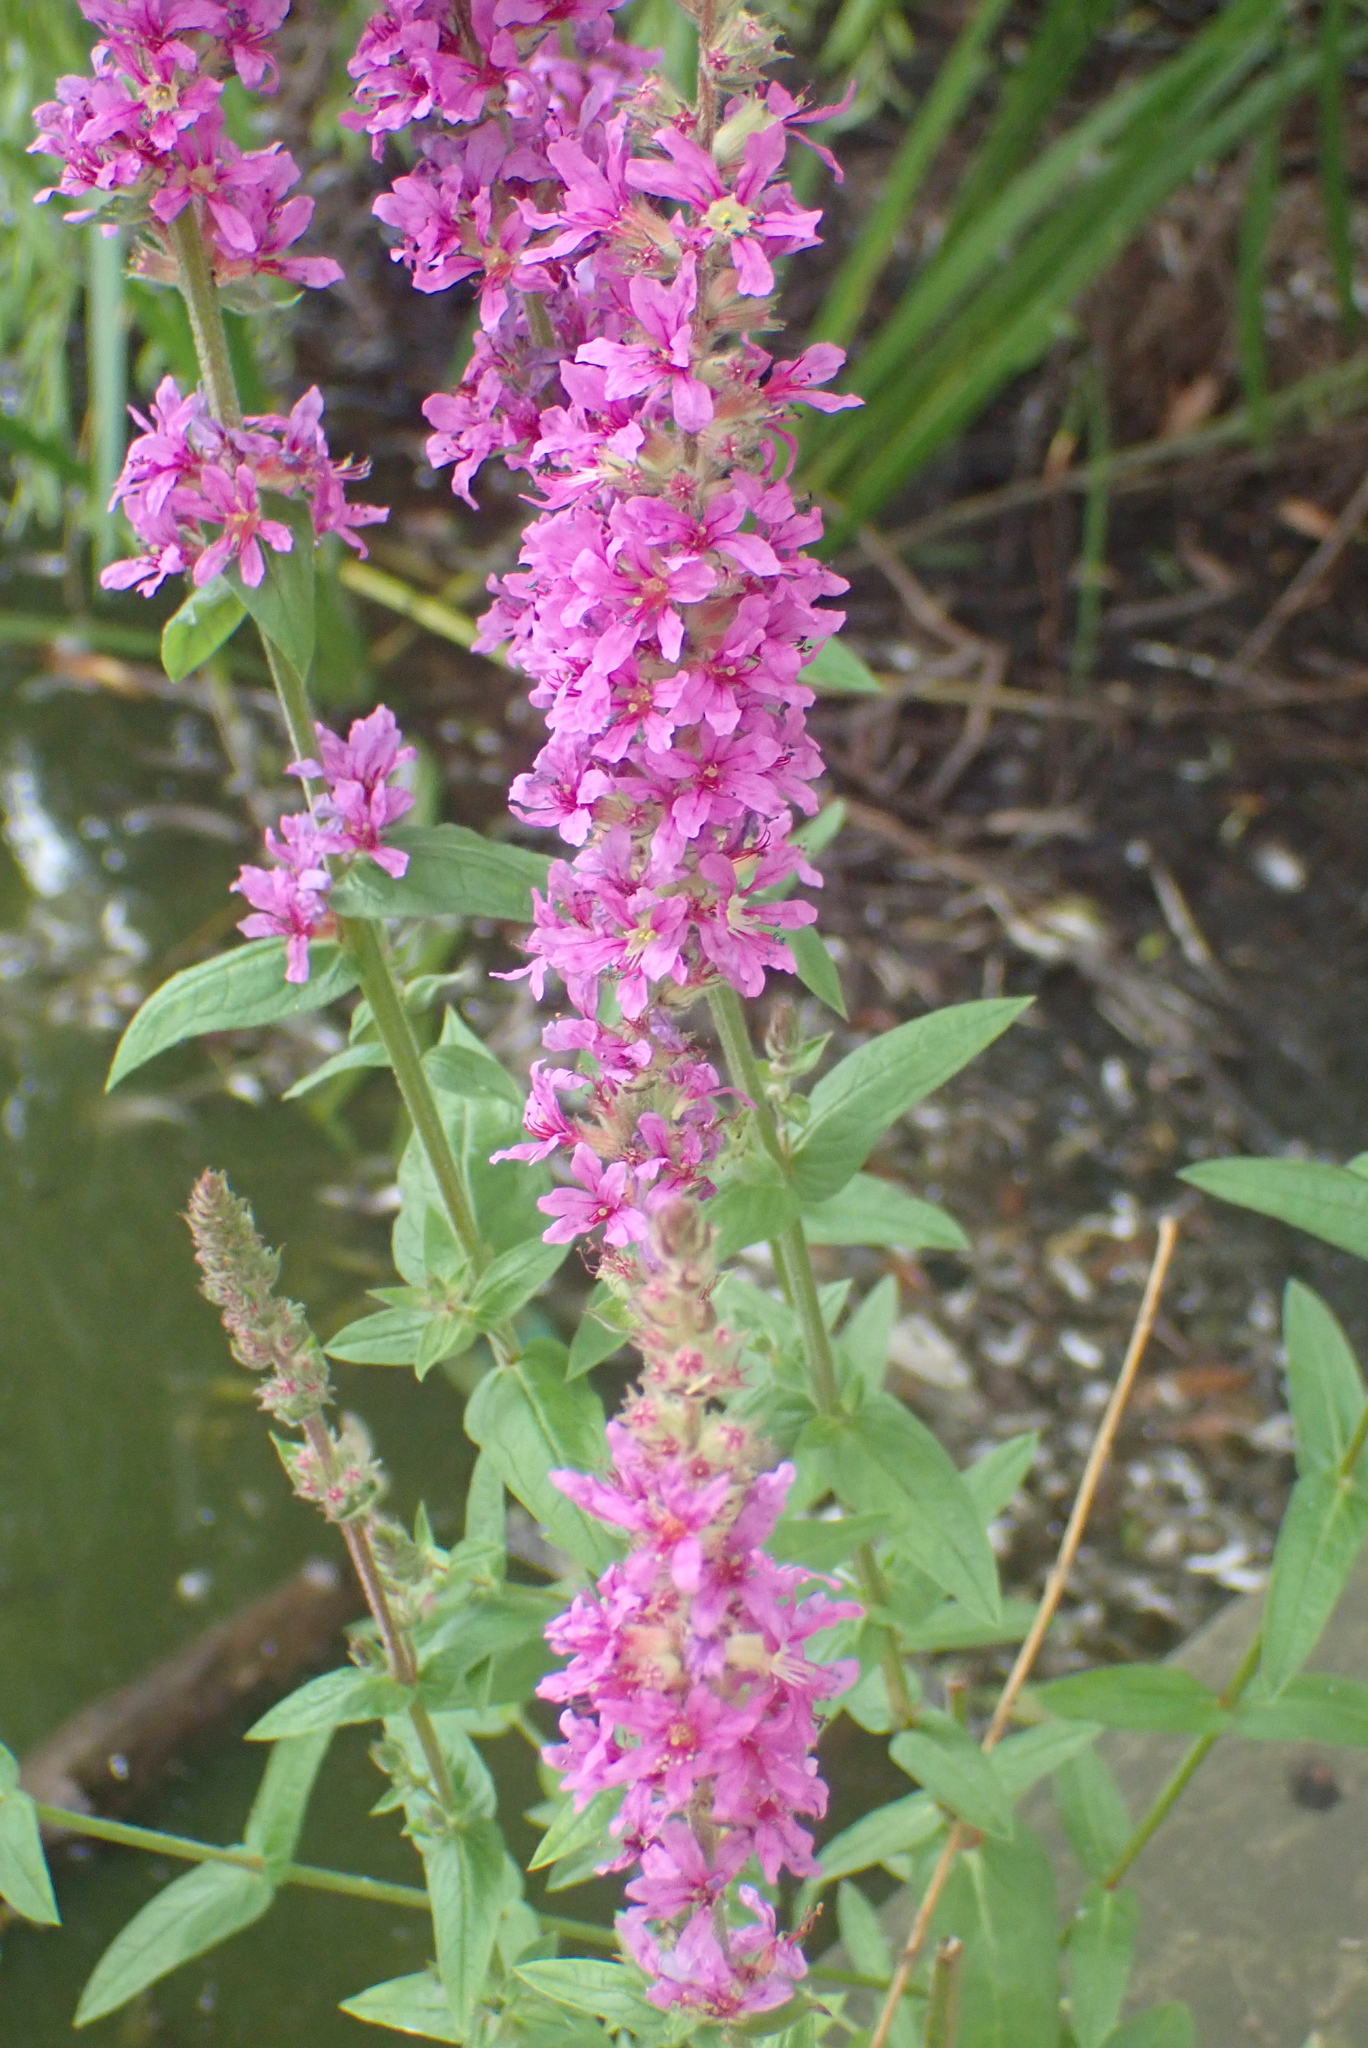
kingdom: Plantae
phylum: Tracheophyta
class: Magnoliopsida
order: Myrtales
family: Lythraceae
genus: Lythrum
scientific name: Lythrum salicaria
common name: Purple loosestrife
